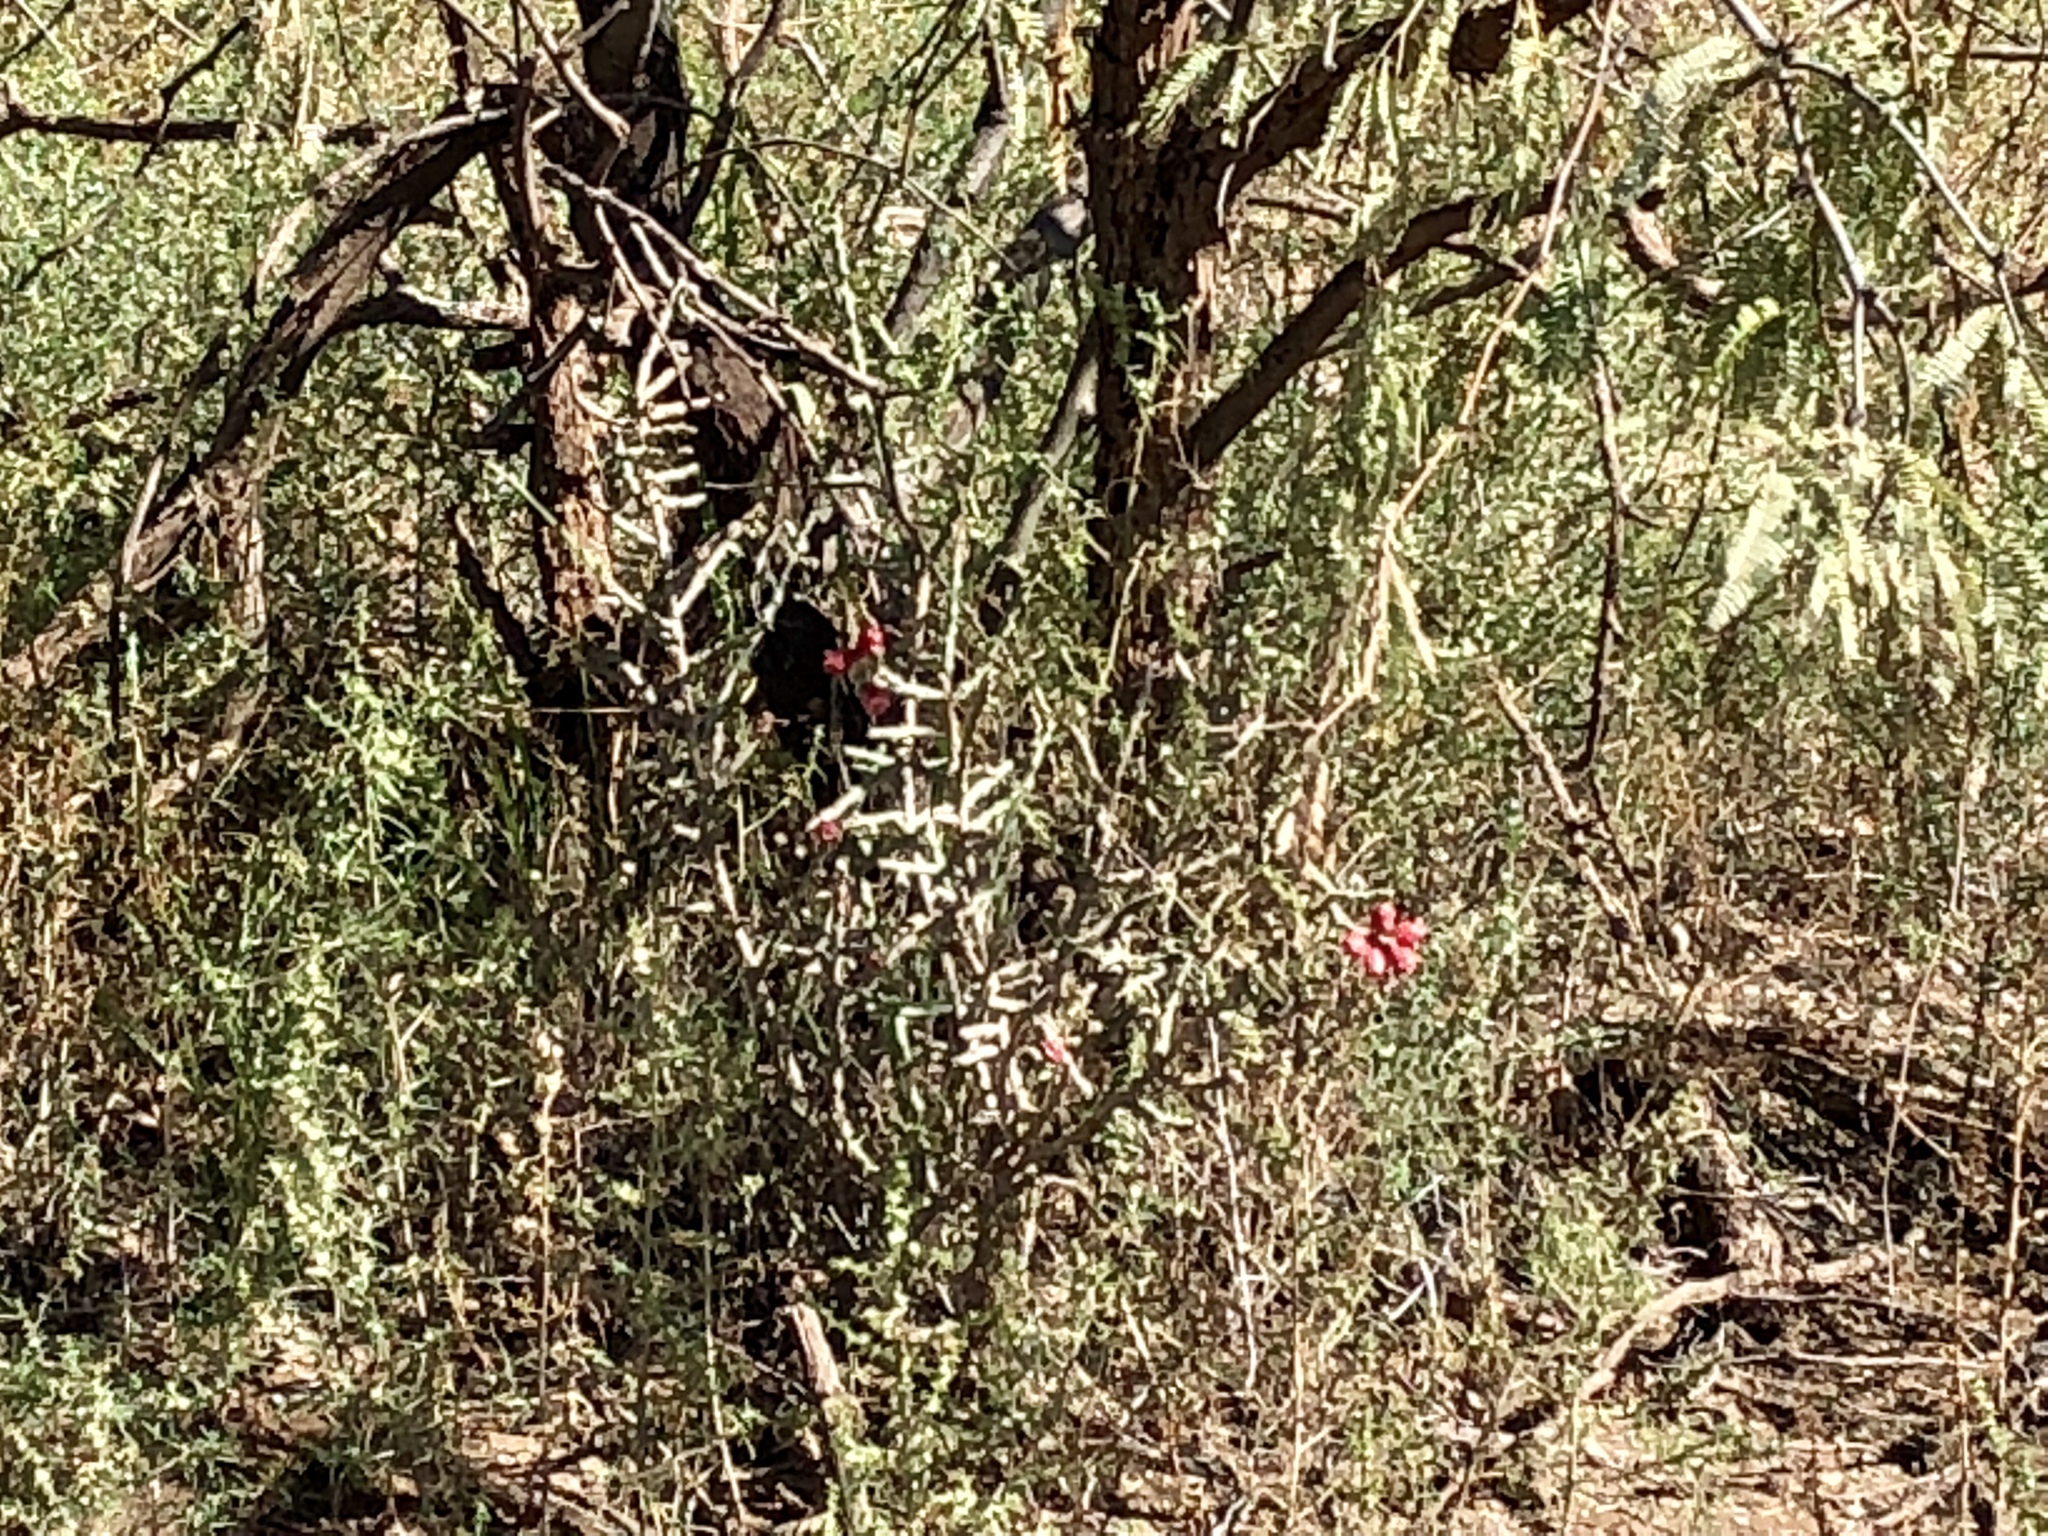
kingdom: Plantae
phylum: Tracheophyta
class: Magnoliopsida
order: Caryophyllales
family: Cactaceae
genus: Cylindropuntia
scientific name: Cylindropuntia leptocaulis
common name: Christmas cactus
